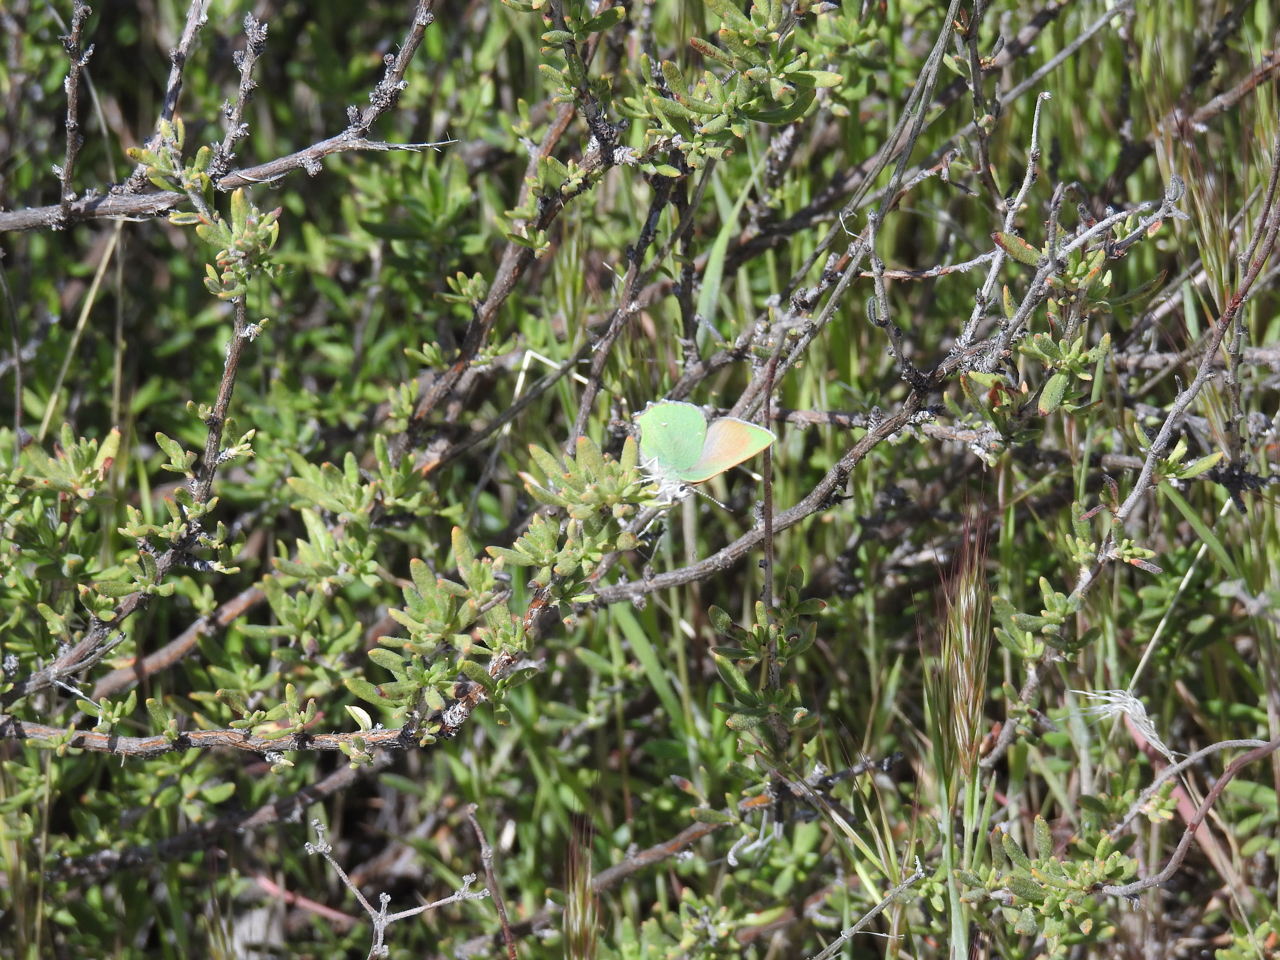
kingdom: Animalia
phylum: Arthropoda
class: Insecta
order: Lepidoptera
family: Lycaenidae
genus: Callophrys
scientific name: Callophrys dumetorum
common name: Bramble hairstreak
